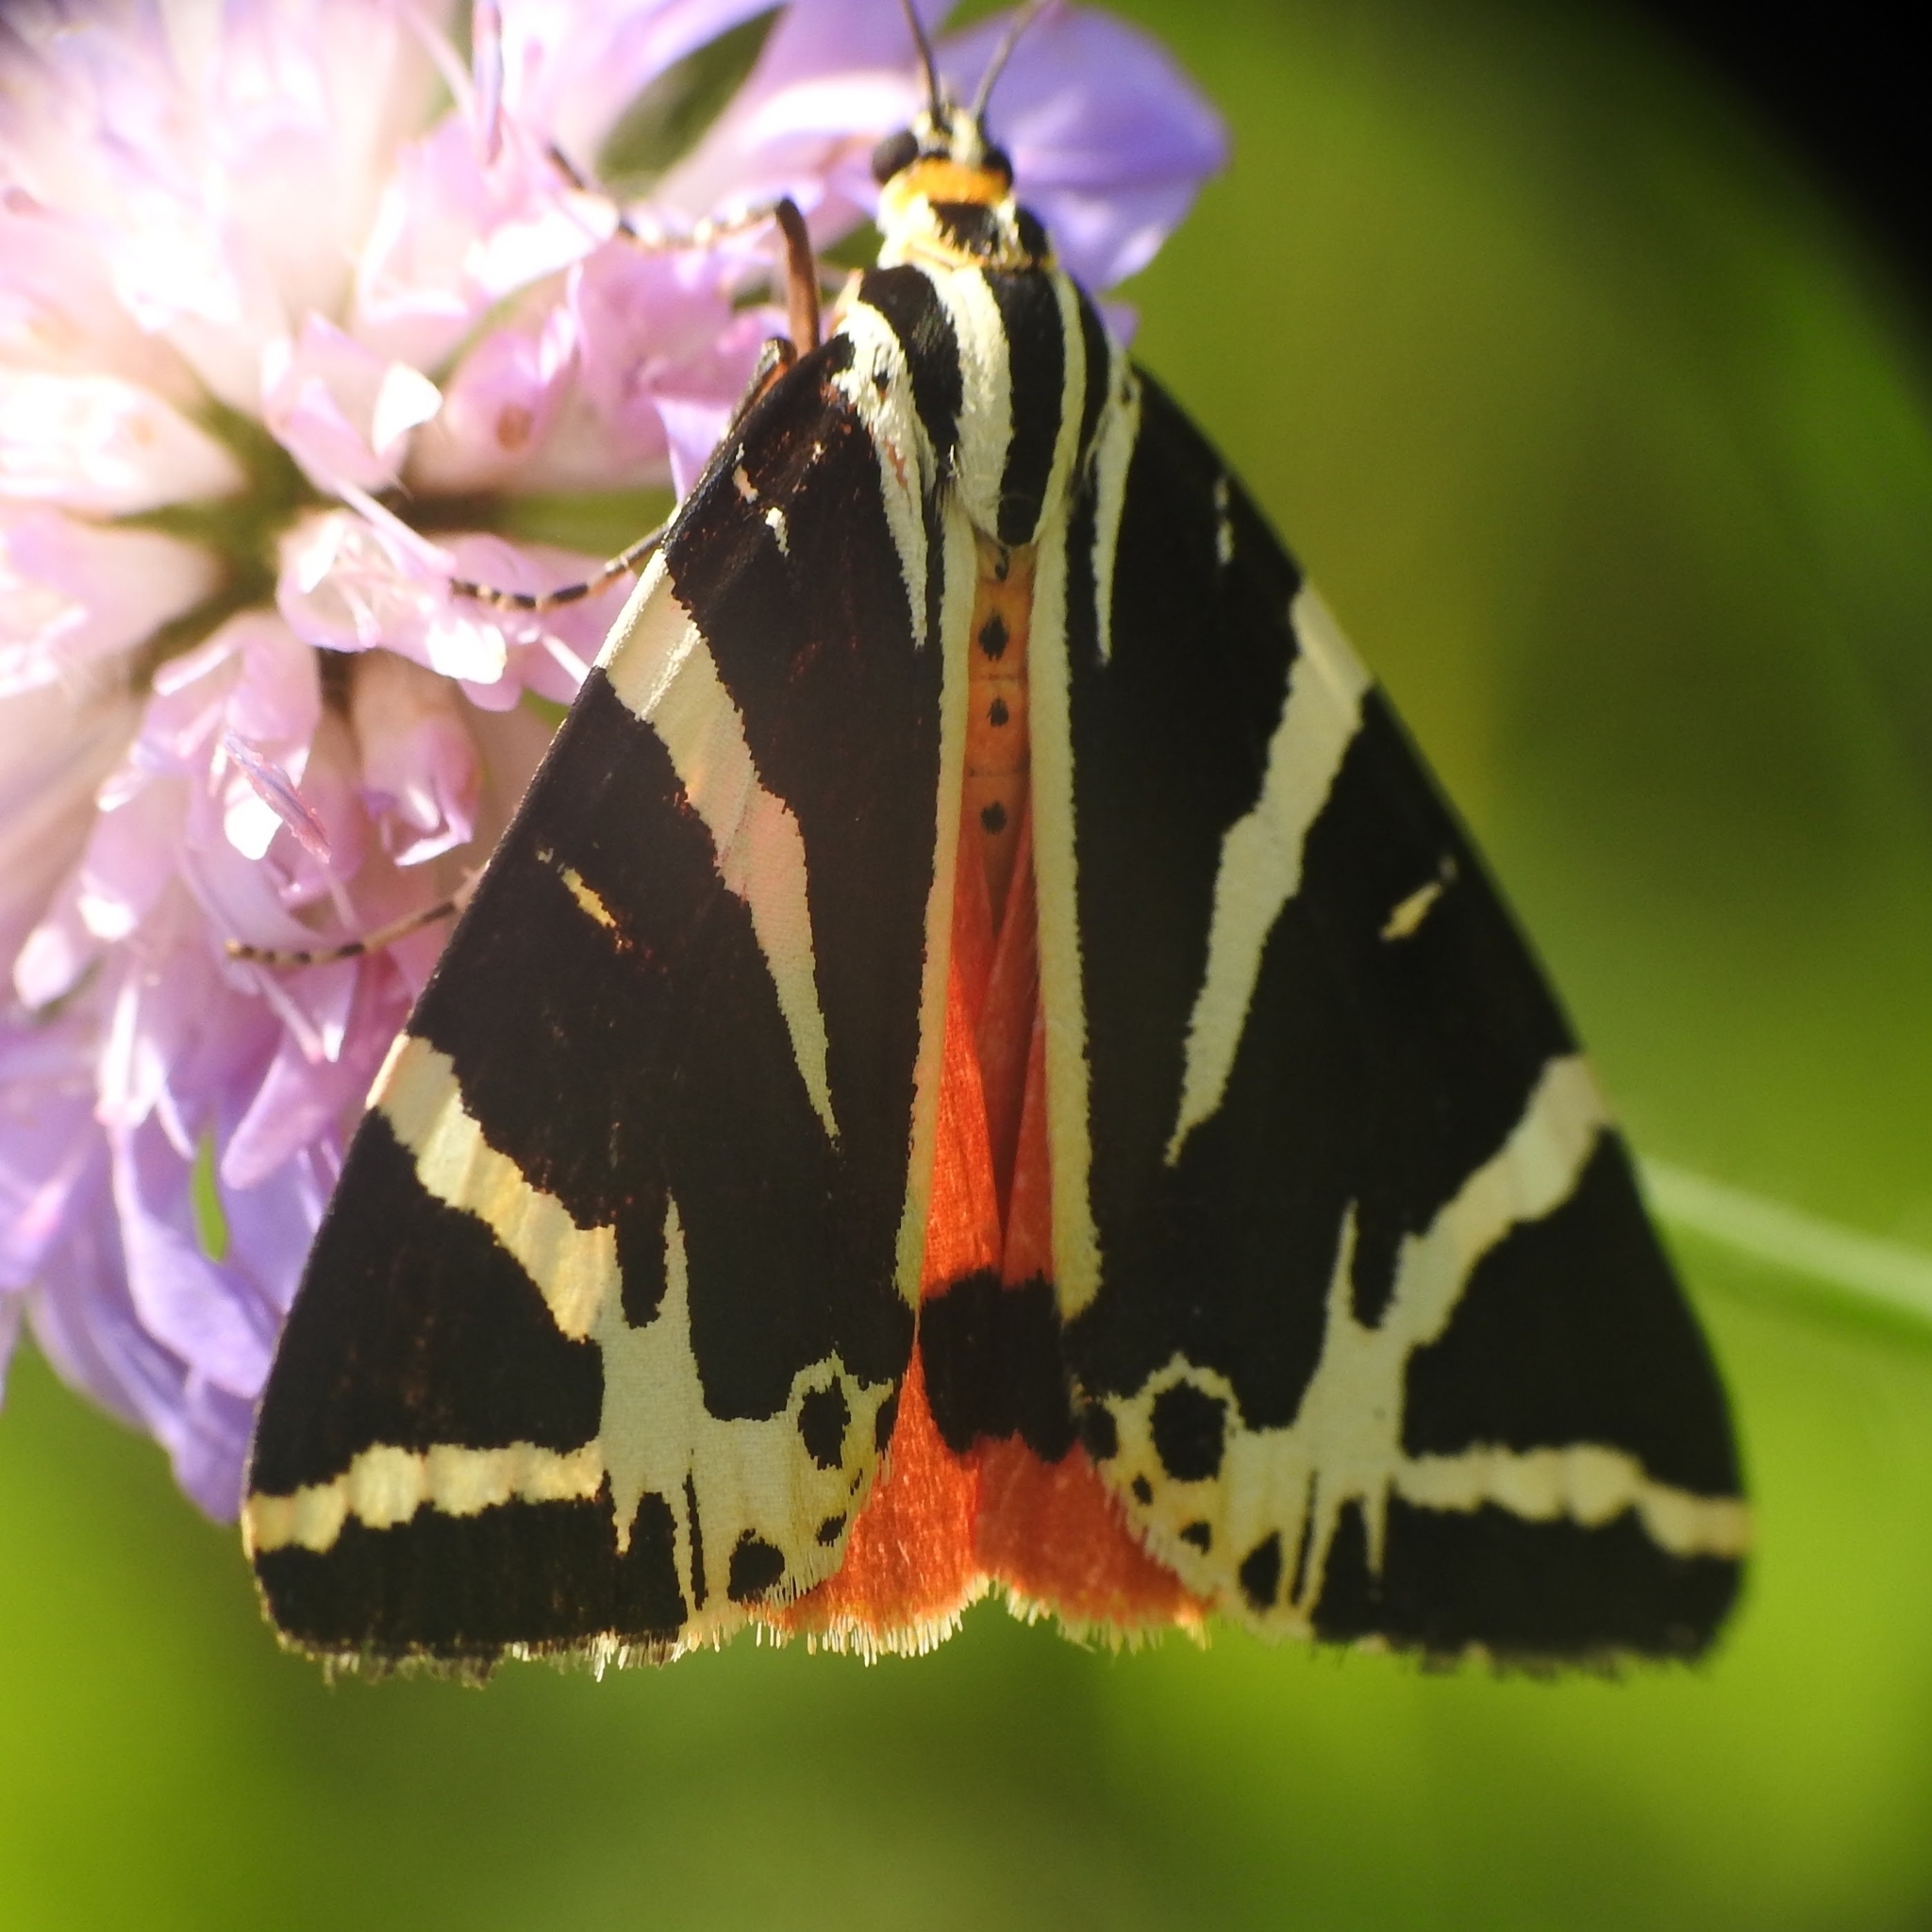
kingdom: Animalia
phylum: Arthropoda
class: Insecta
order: Lepidoptera
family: Erebidae
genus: Euplagia
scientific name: Euplagia quadripunctaria
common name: Jersey tiger
